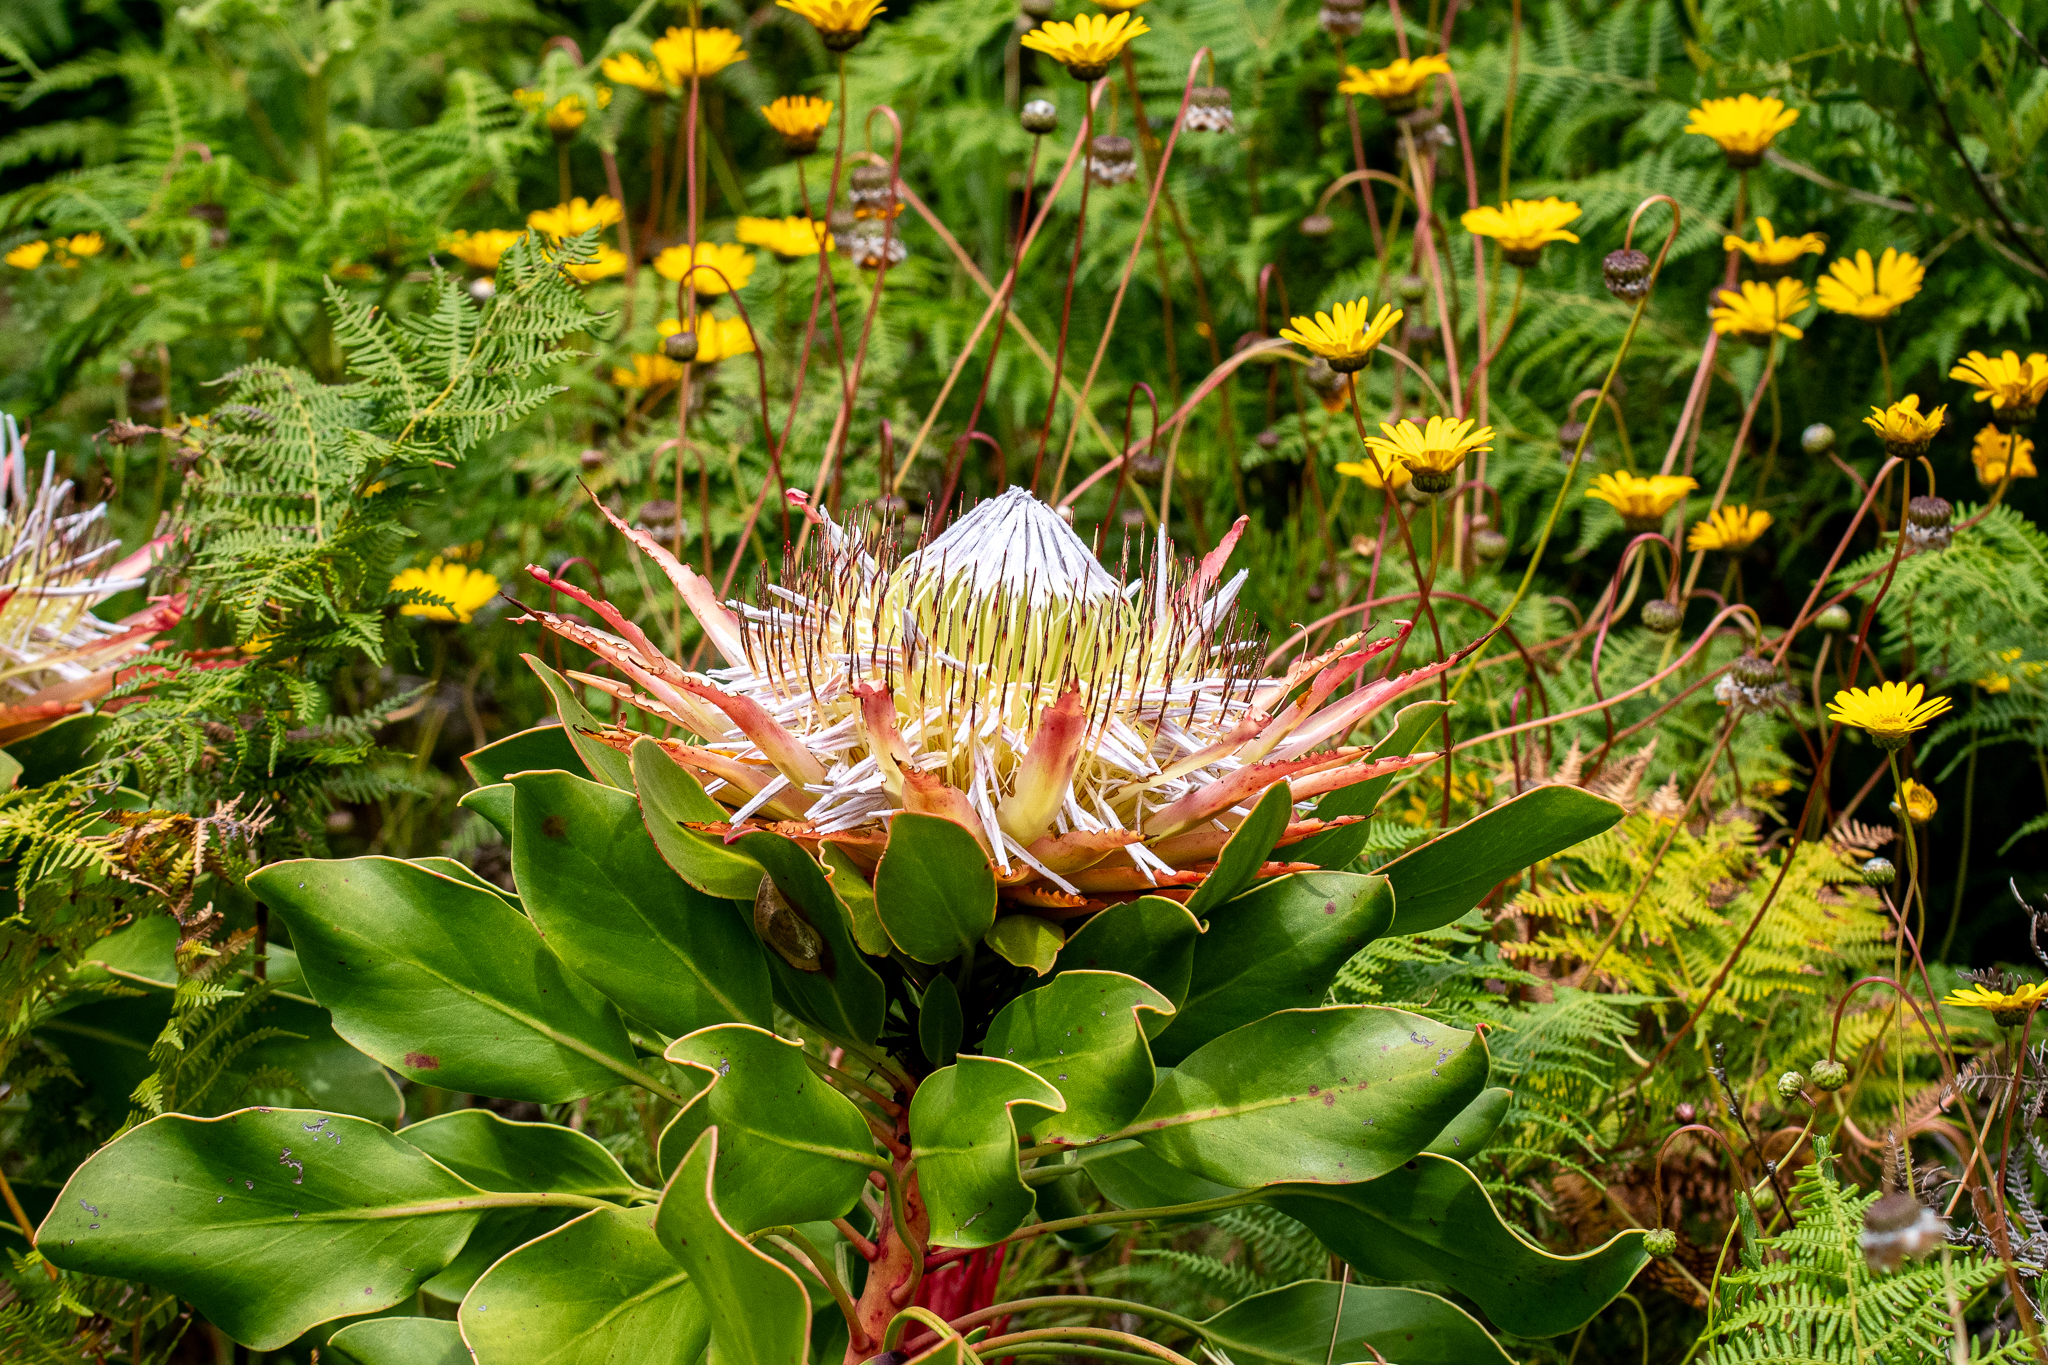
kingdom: Plantae
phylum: Tracheophyta
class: Magnoliopsida
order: Proteales
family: Proteaceae
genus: Protea
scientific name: Protea cynaroides
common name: King protea
